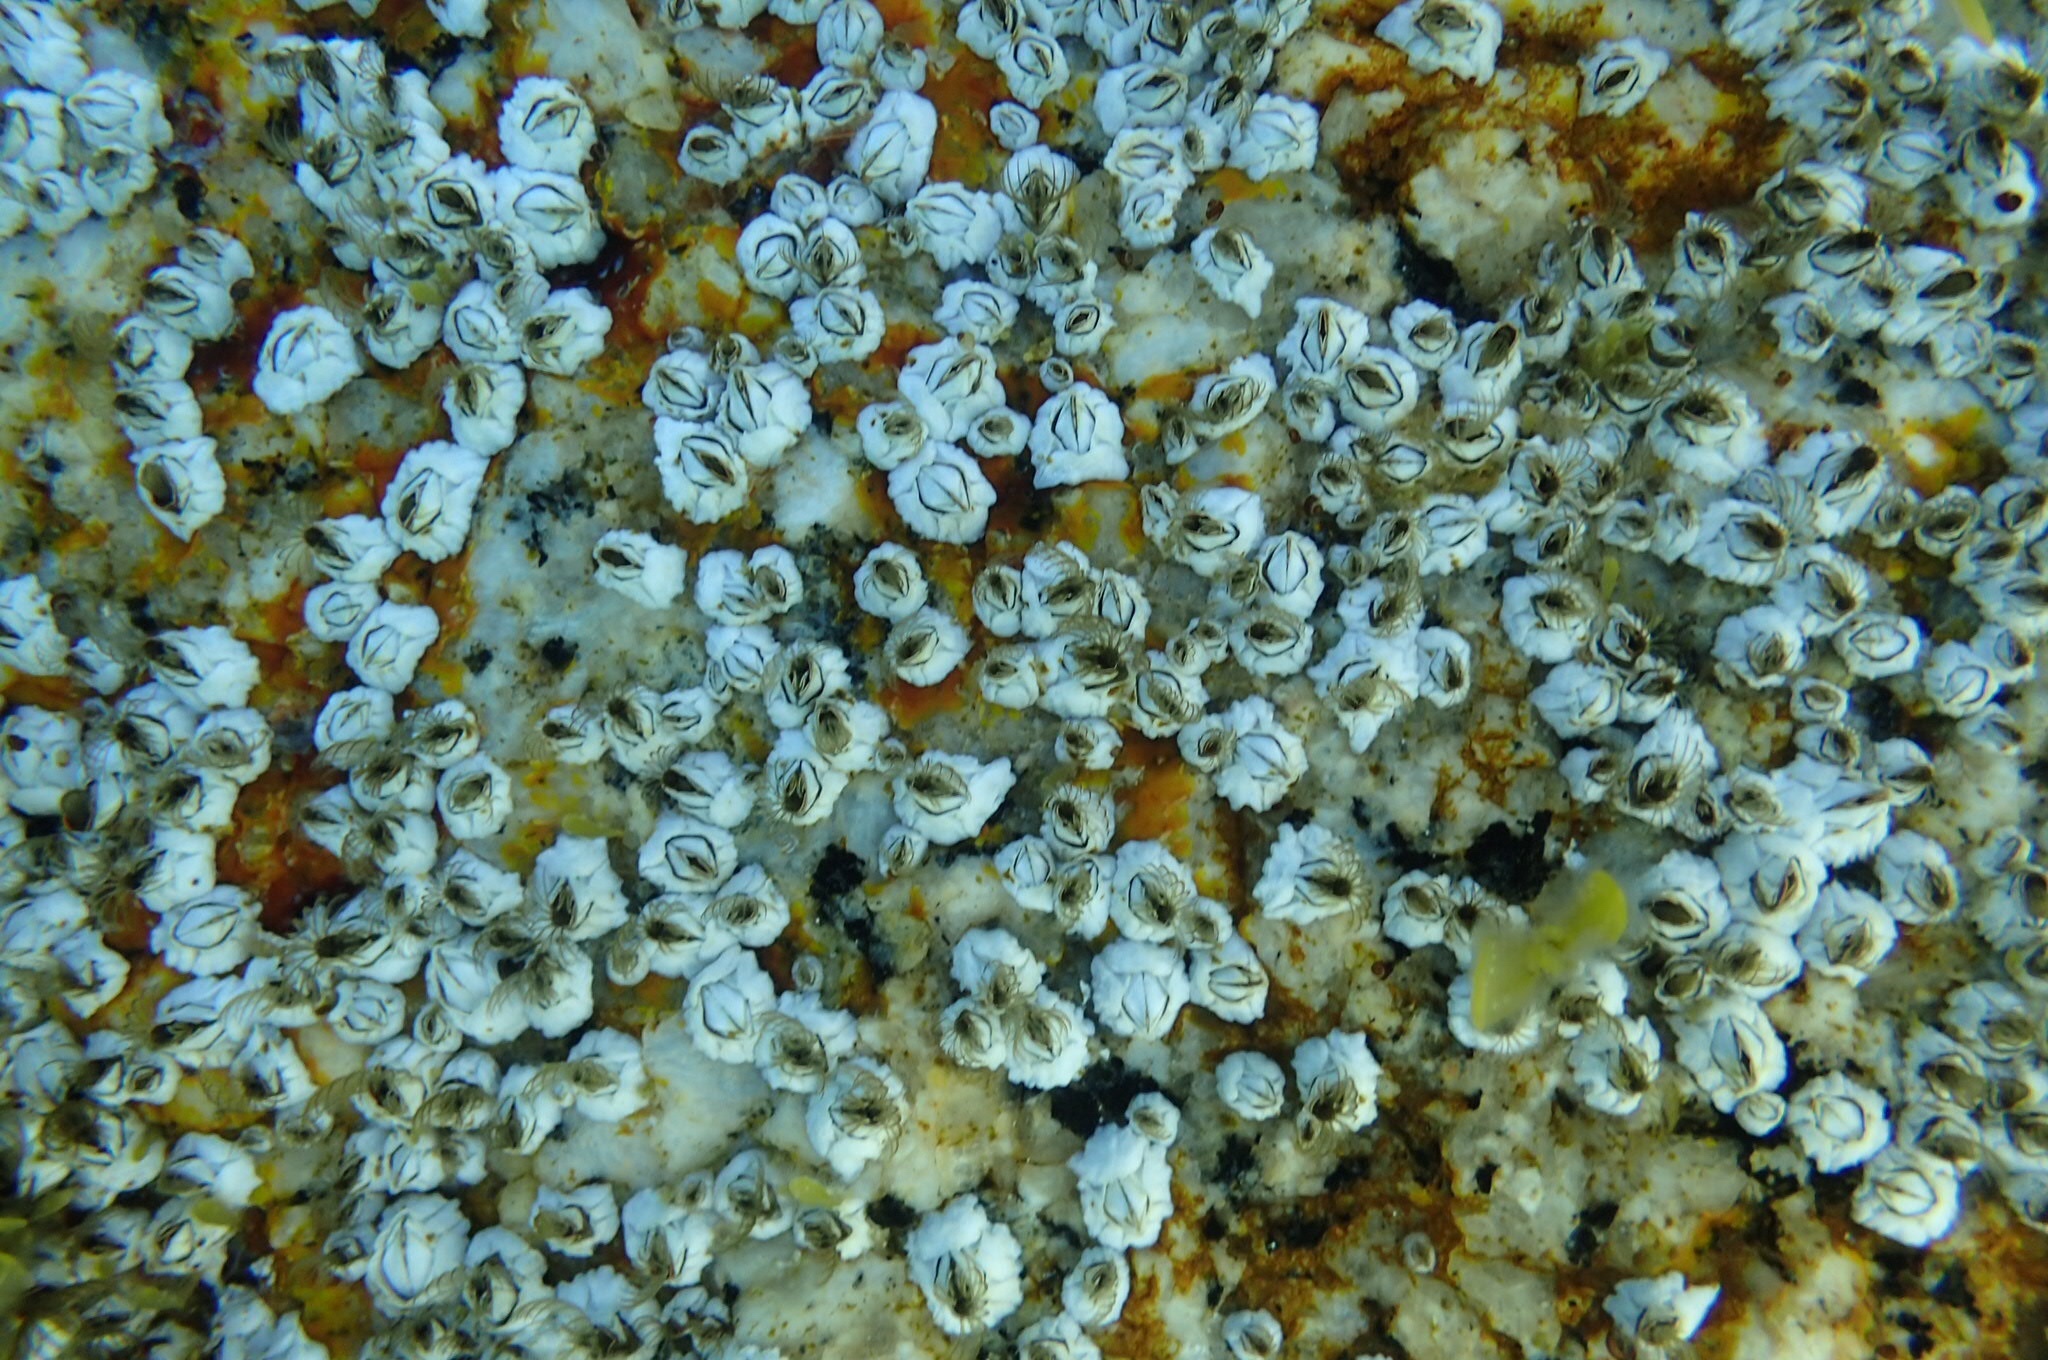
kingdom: Animalia
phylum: Arthropoda
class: Maxillopoda
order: Sessilia
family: Archaeobalanidae
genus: Semibalanus
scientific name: Semibalanus balanoides
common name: Acorn barnacle
